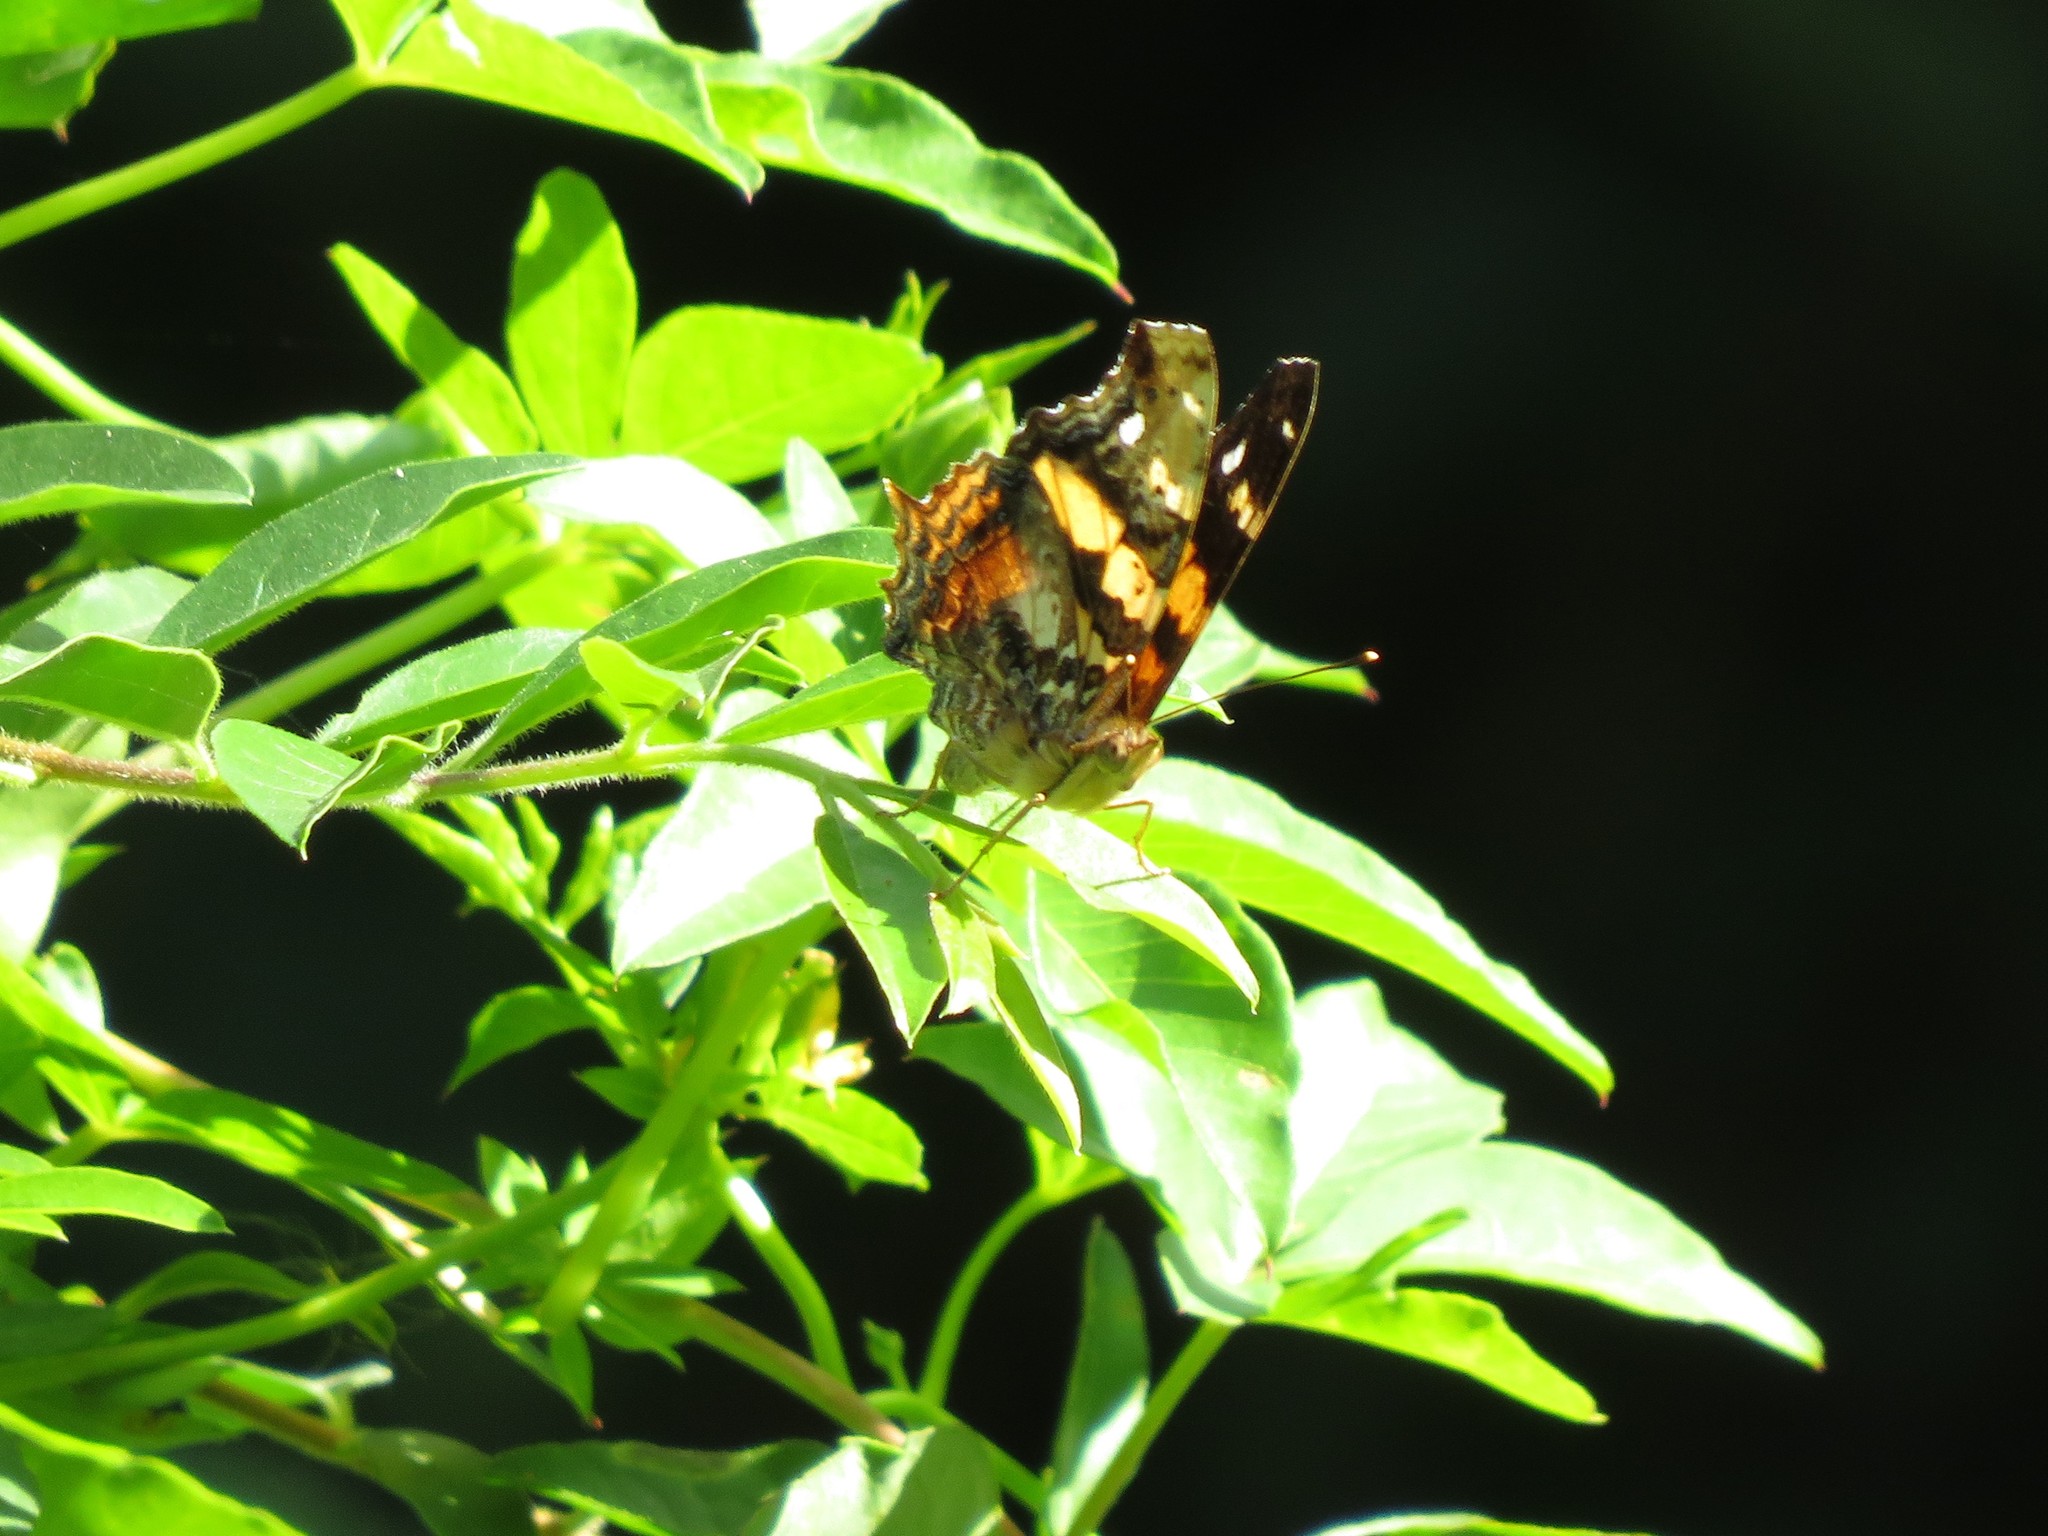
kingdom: Animalia
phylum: Arthropoda
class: Insecta
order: Lepidoptera
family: Nymphalidae
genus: Hypanartia
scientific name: Hypanartia bella
